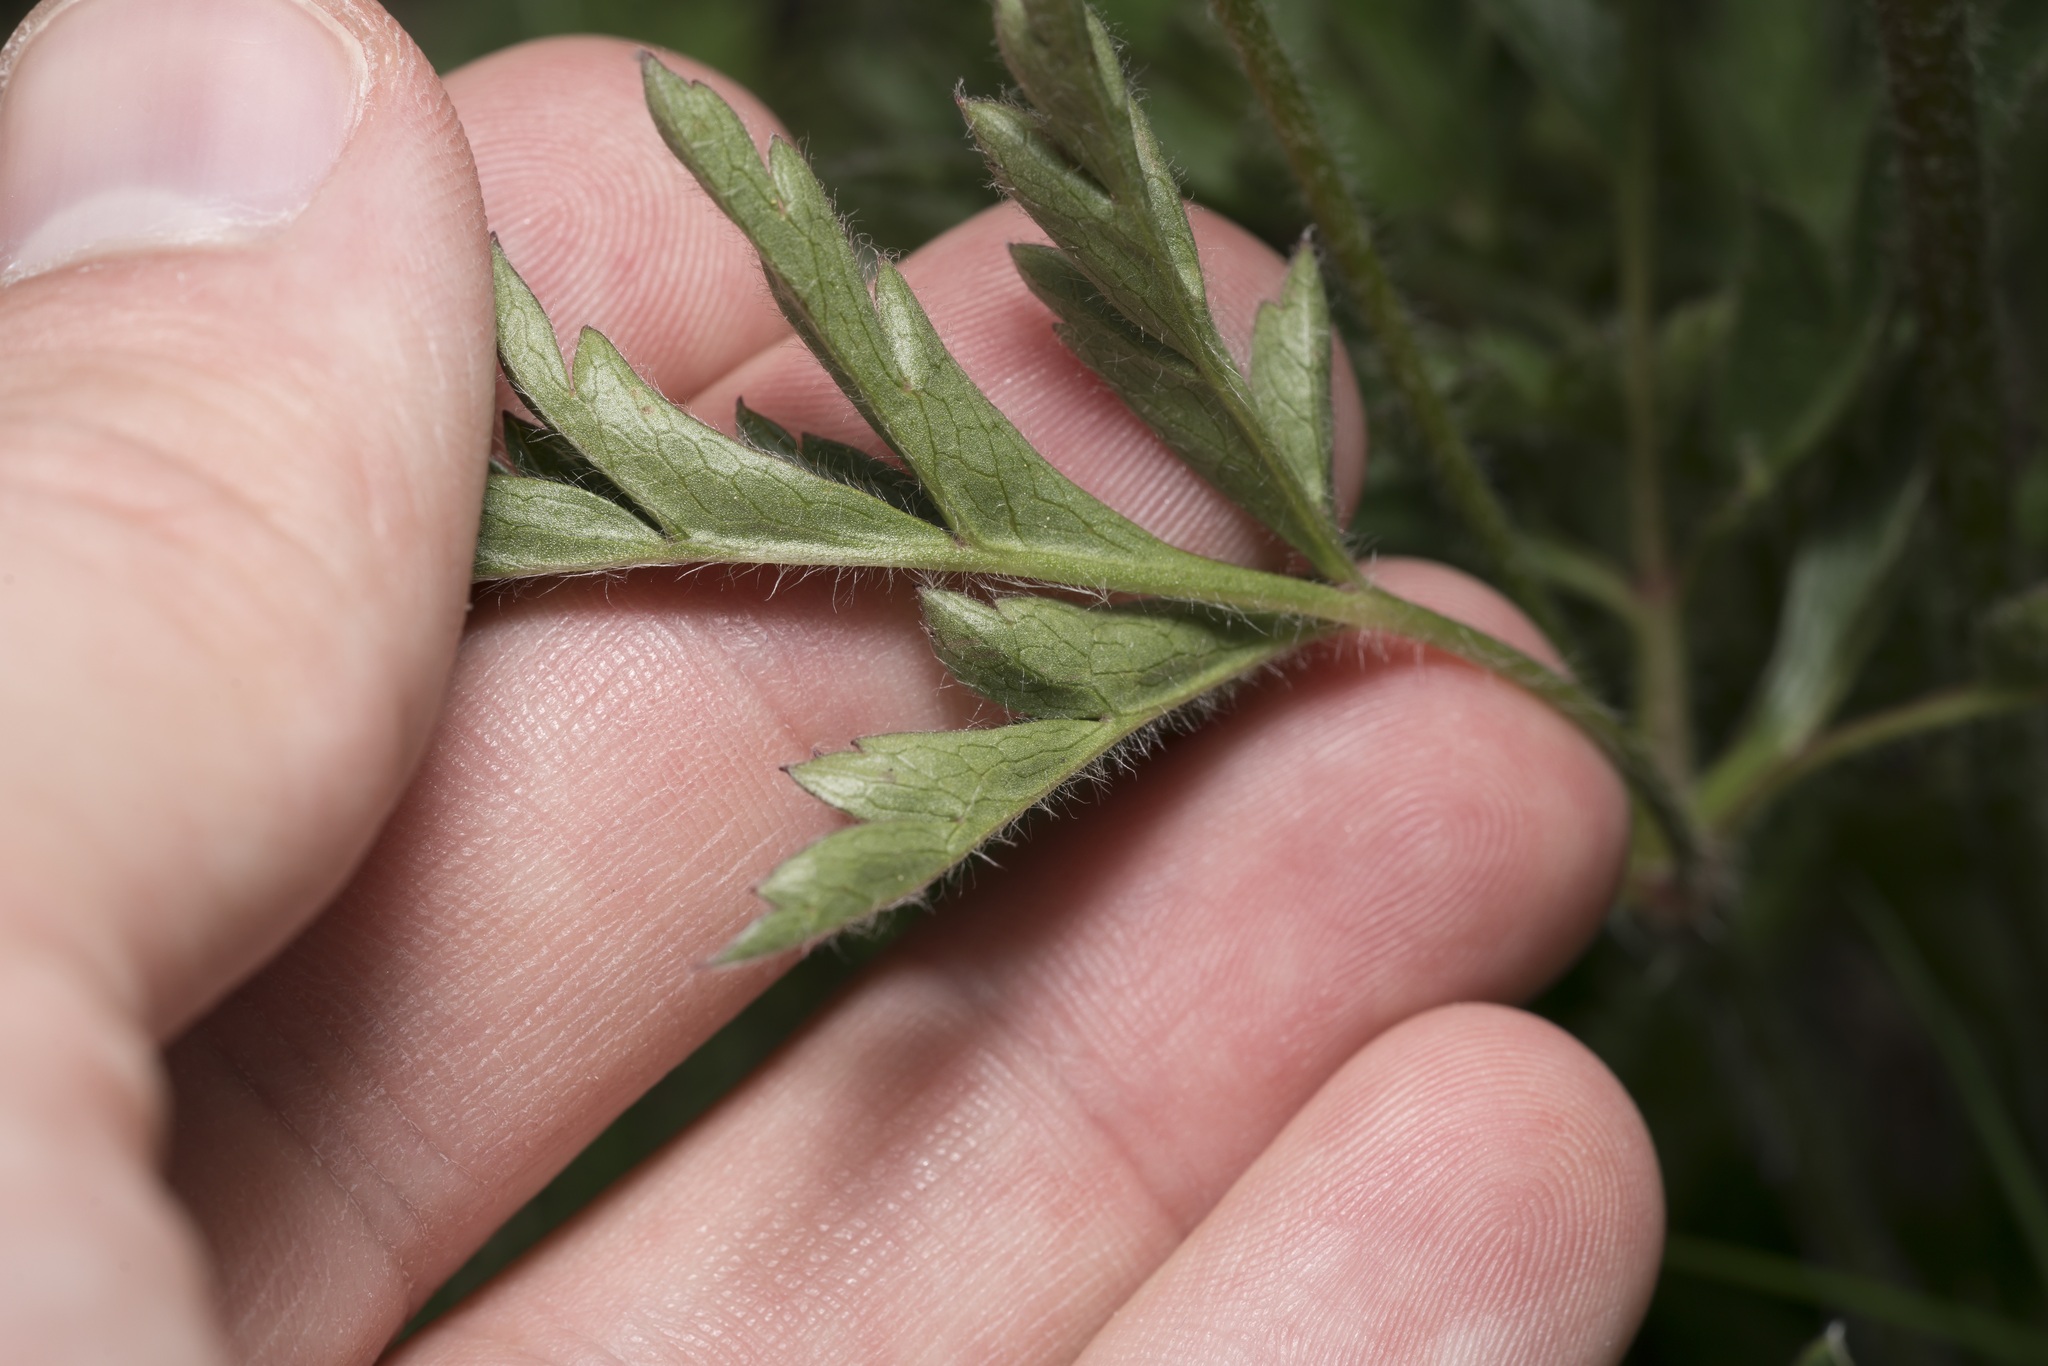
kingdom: Plantae
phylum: Tracheophyta
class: Magnoliopsida
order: Ranunculales
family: Ranunculaceae
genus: Pulsatilla
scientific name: Pulsatilla alpina
